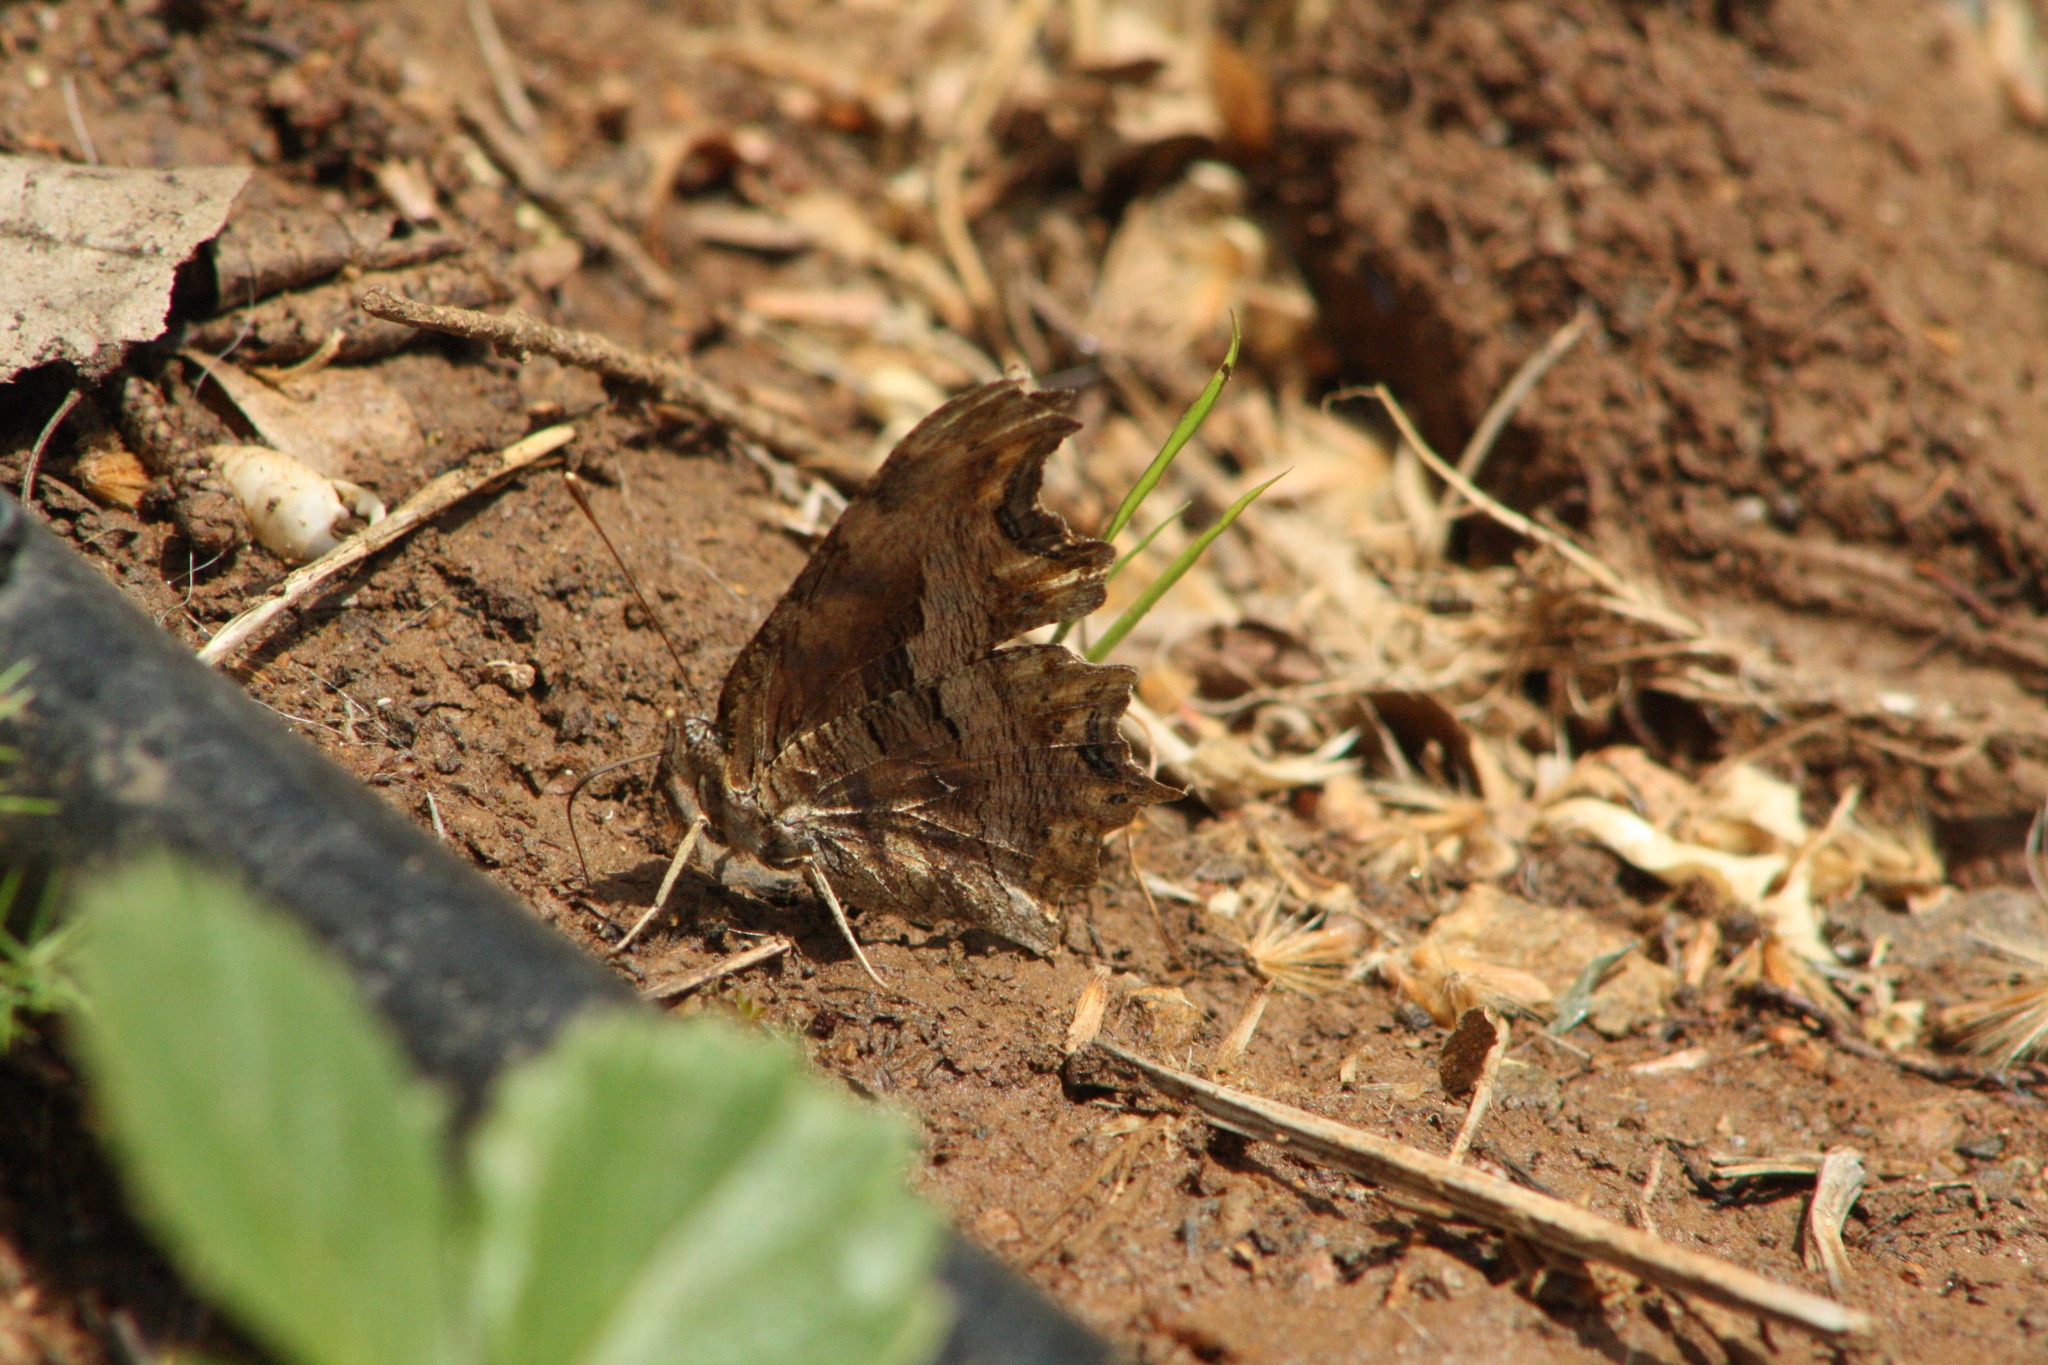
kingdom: Animalia
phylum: Arthropoda
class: Insecta
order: Lepidoptera
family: Nymphalidae
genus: Polygonia
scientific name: Polygonia egea
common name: Southern comma
